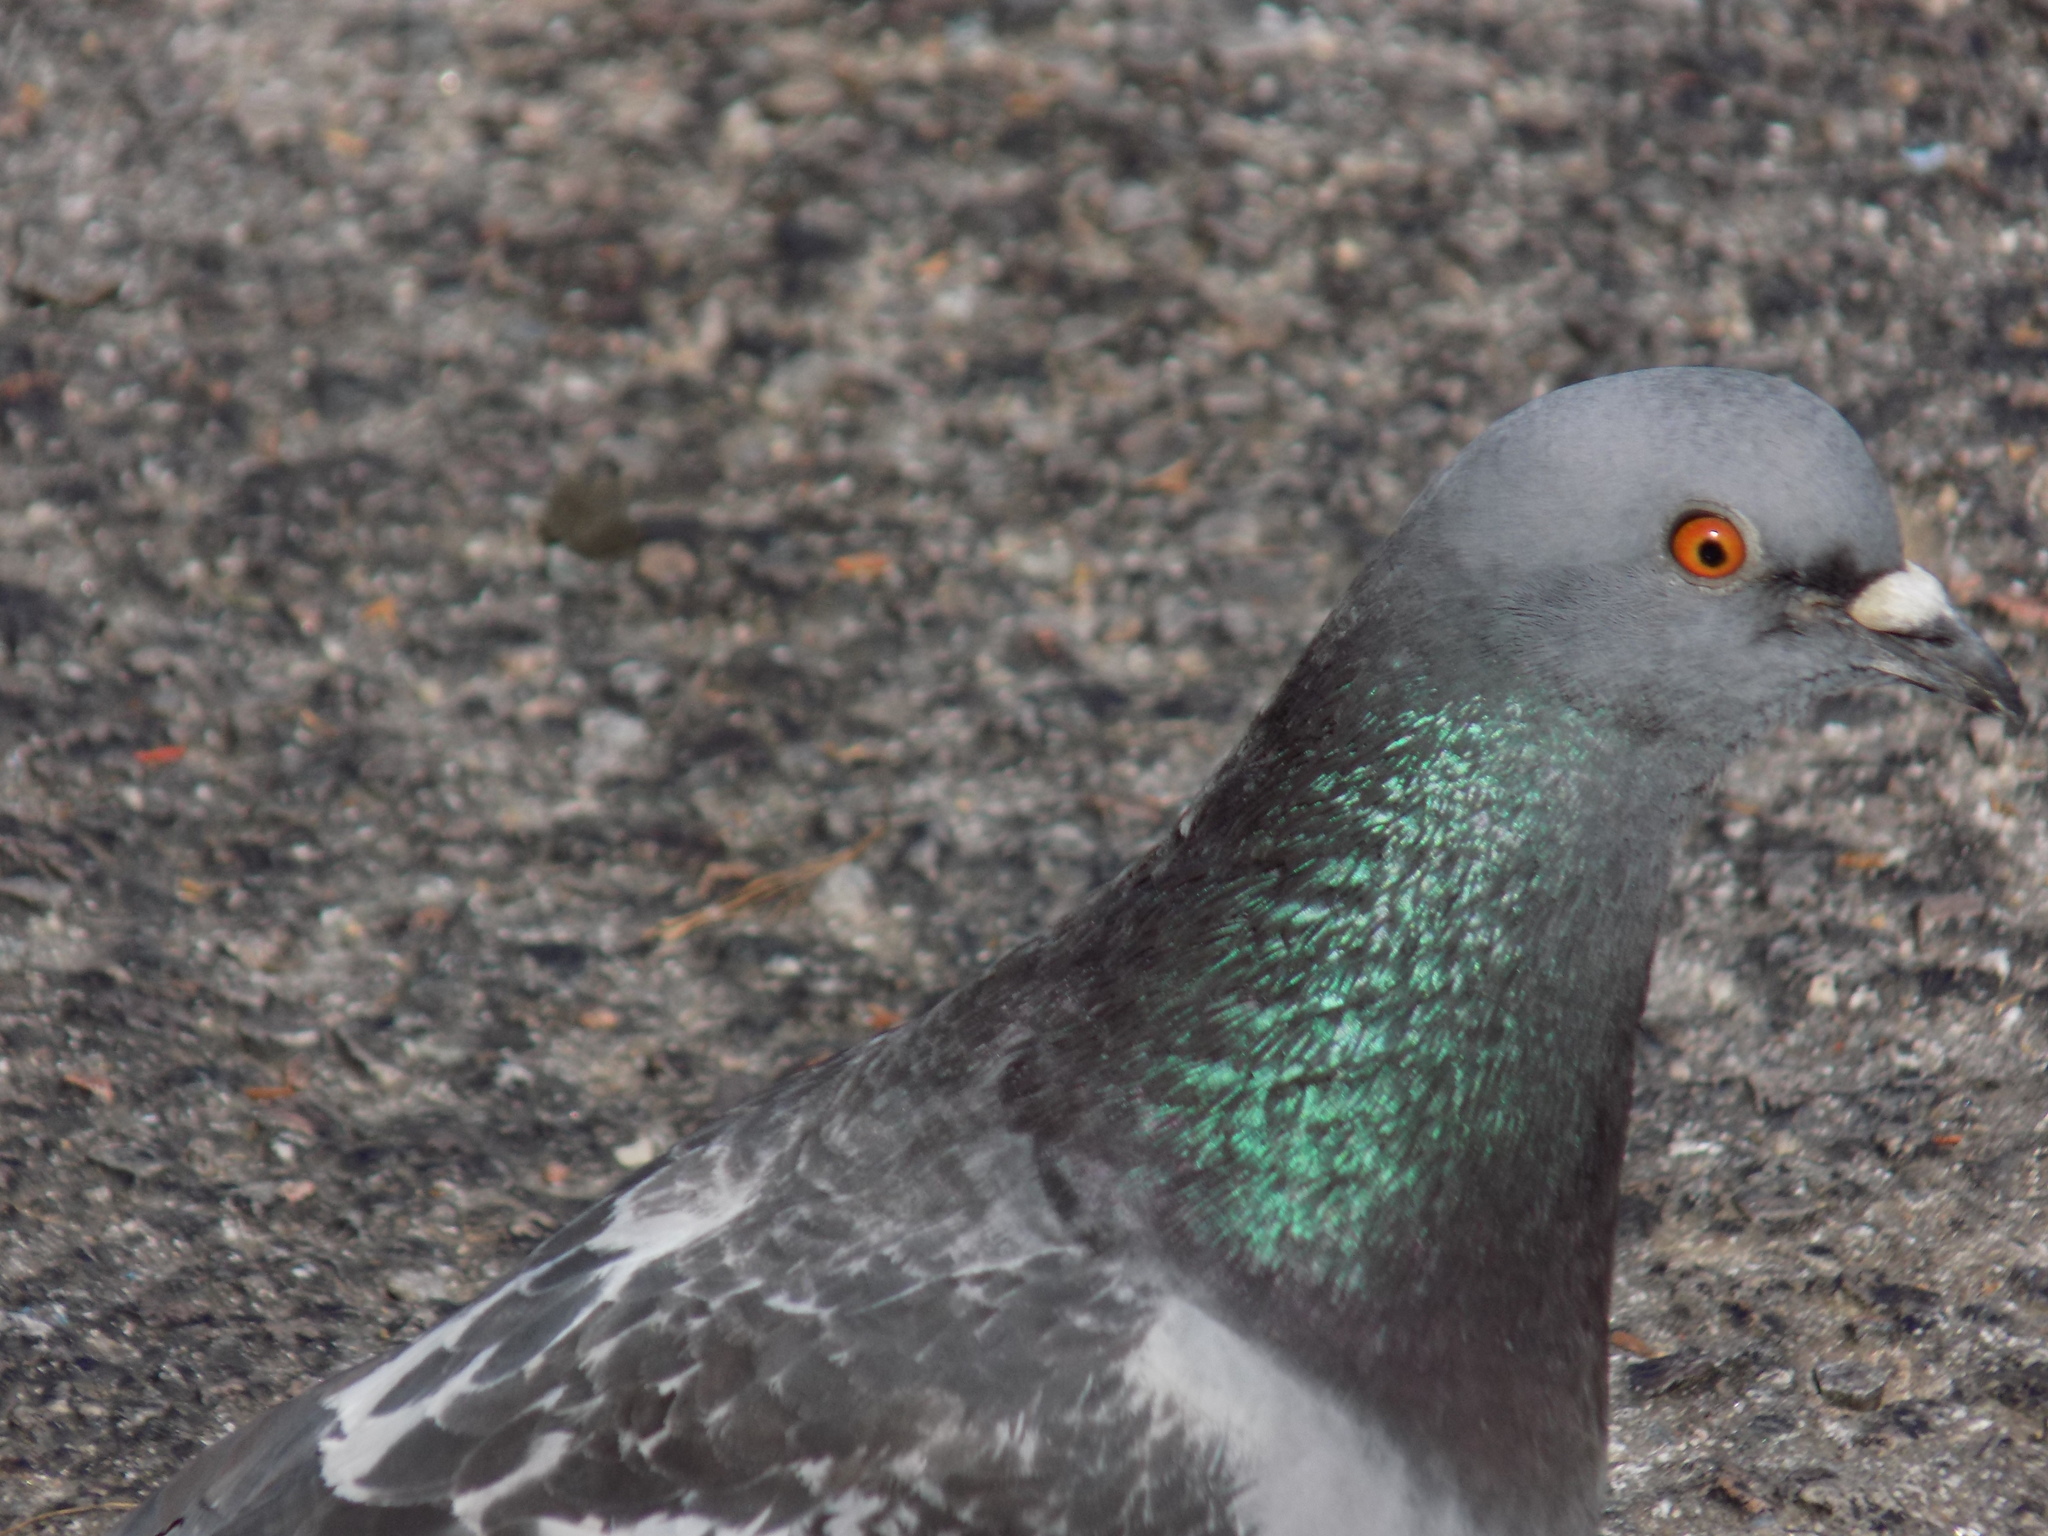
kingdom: Animalia
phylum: Chordata
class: Aves
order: Columbiformes
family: Columbidae
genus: Columba
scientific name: Columba livia
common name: Rock pigeon
